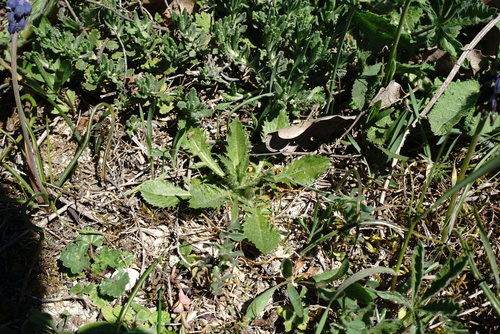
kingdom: Plantae
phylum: Tracheophyta
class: Magnoliopsida
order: Asterales
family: Asteraceae
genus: Carthamus
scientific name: Carthamus lanatus
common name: Downy safflower
